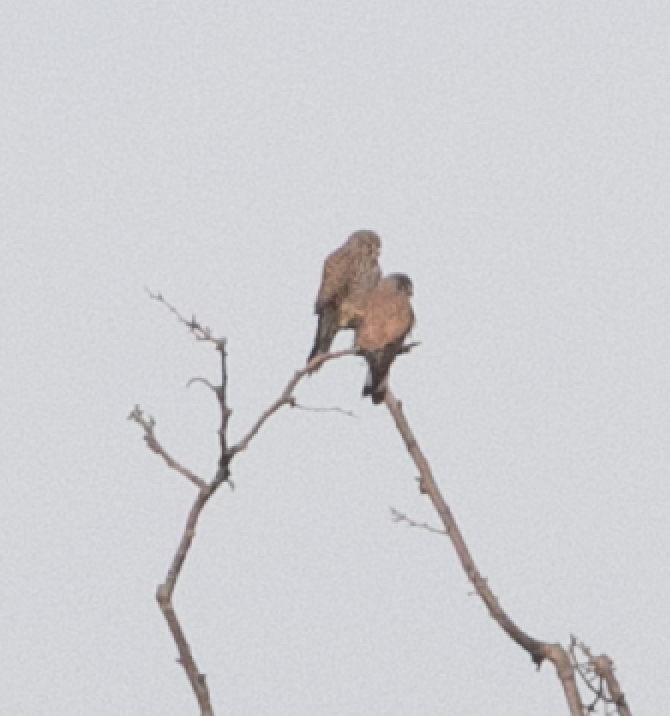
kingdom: Animalia
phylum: Chordata
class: Aves
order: Falconiformes
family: Falconidae
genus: Falco
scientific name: Falco tinnunculus
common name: Common kestrel
